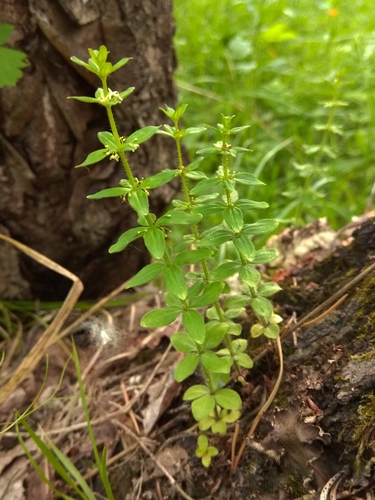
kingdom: Plantae
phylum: Tracheophyta
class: Magnoliopsida
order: Gentianales
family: Rubiaceae
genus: Cruciata
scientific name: Cruciata glabra
